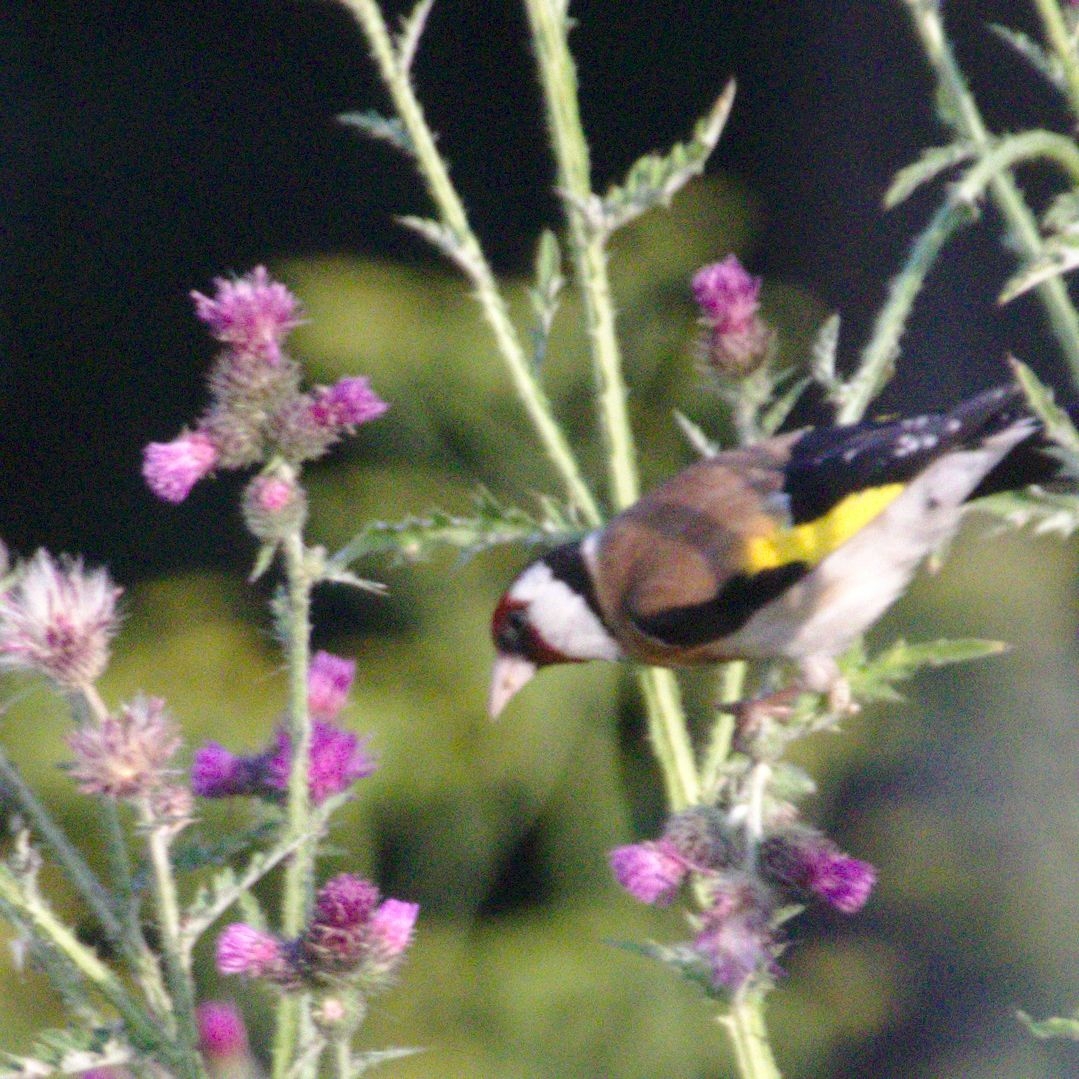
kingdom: Animalia
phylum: Chordata
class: Aves
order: Passeriformes
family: Fringillidae
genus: Carduelis
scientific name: Carduelis carduelis
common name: European goldfinch
